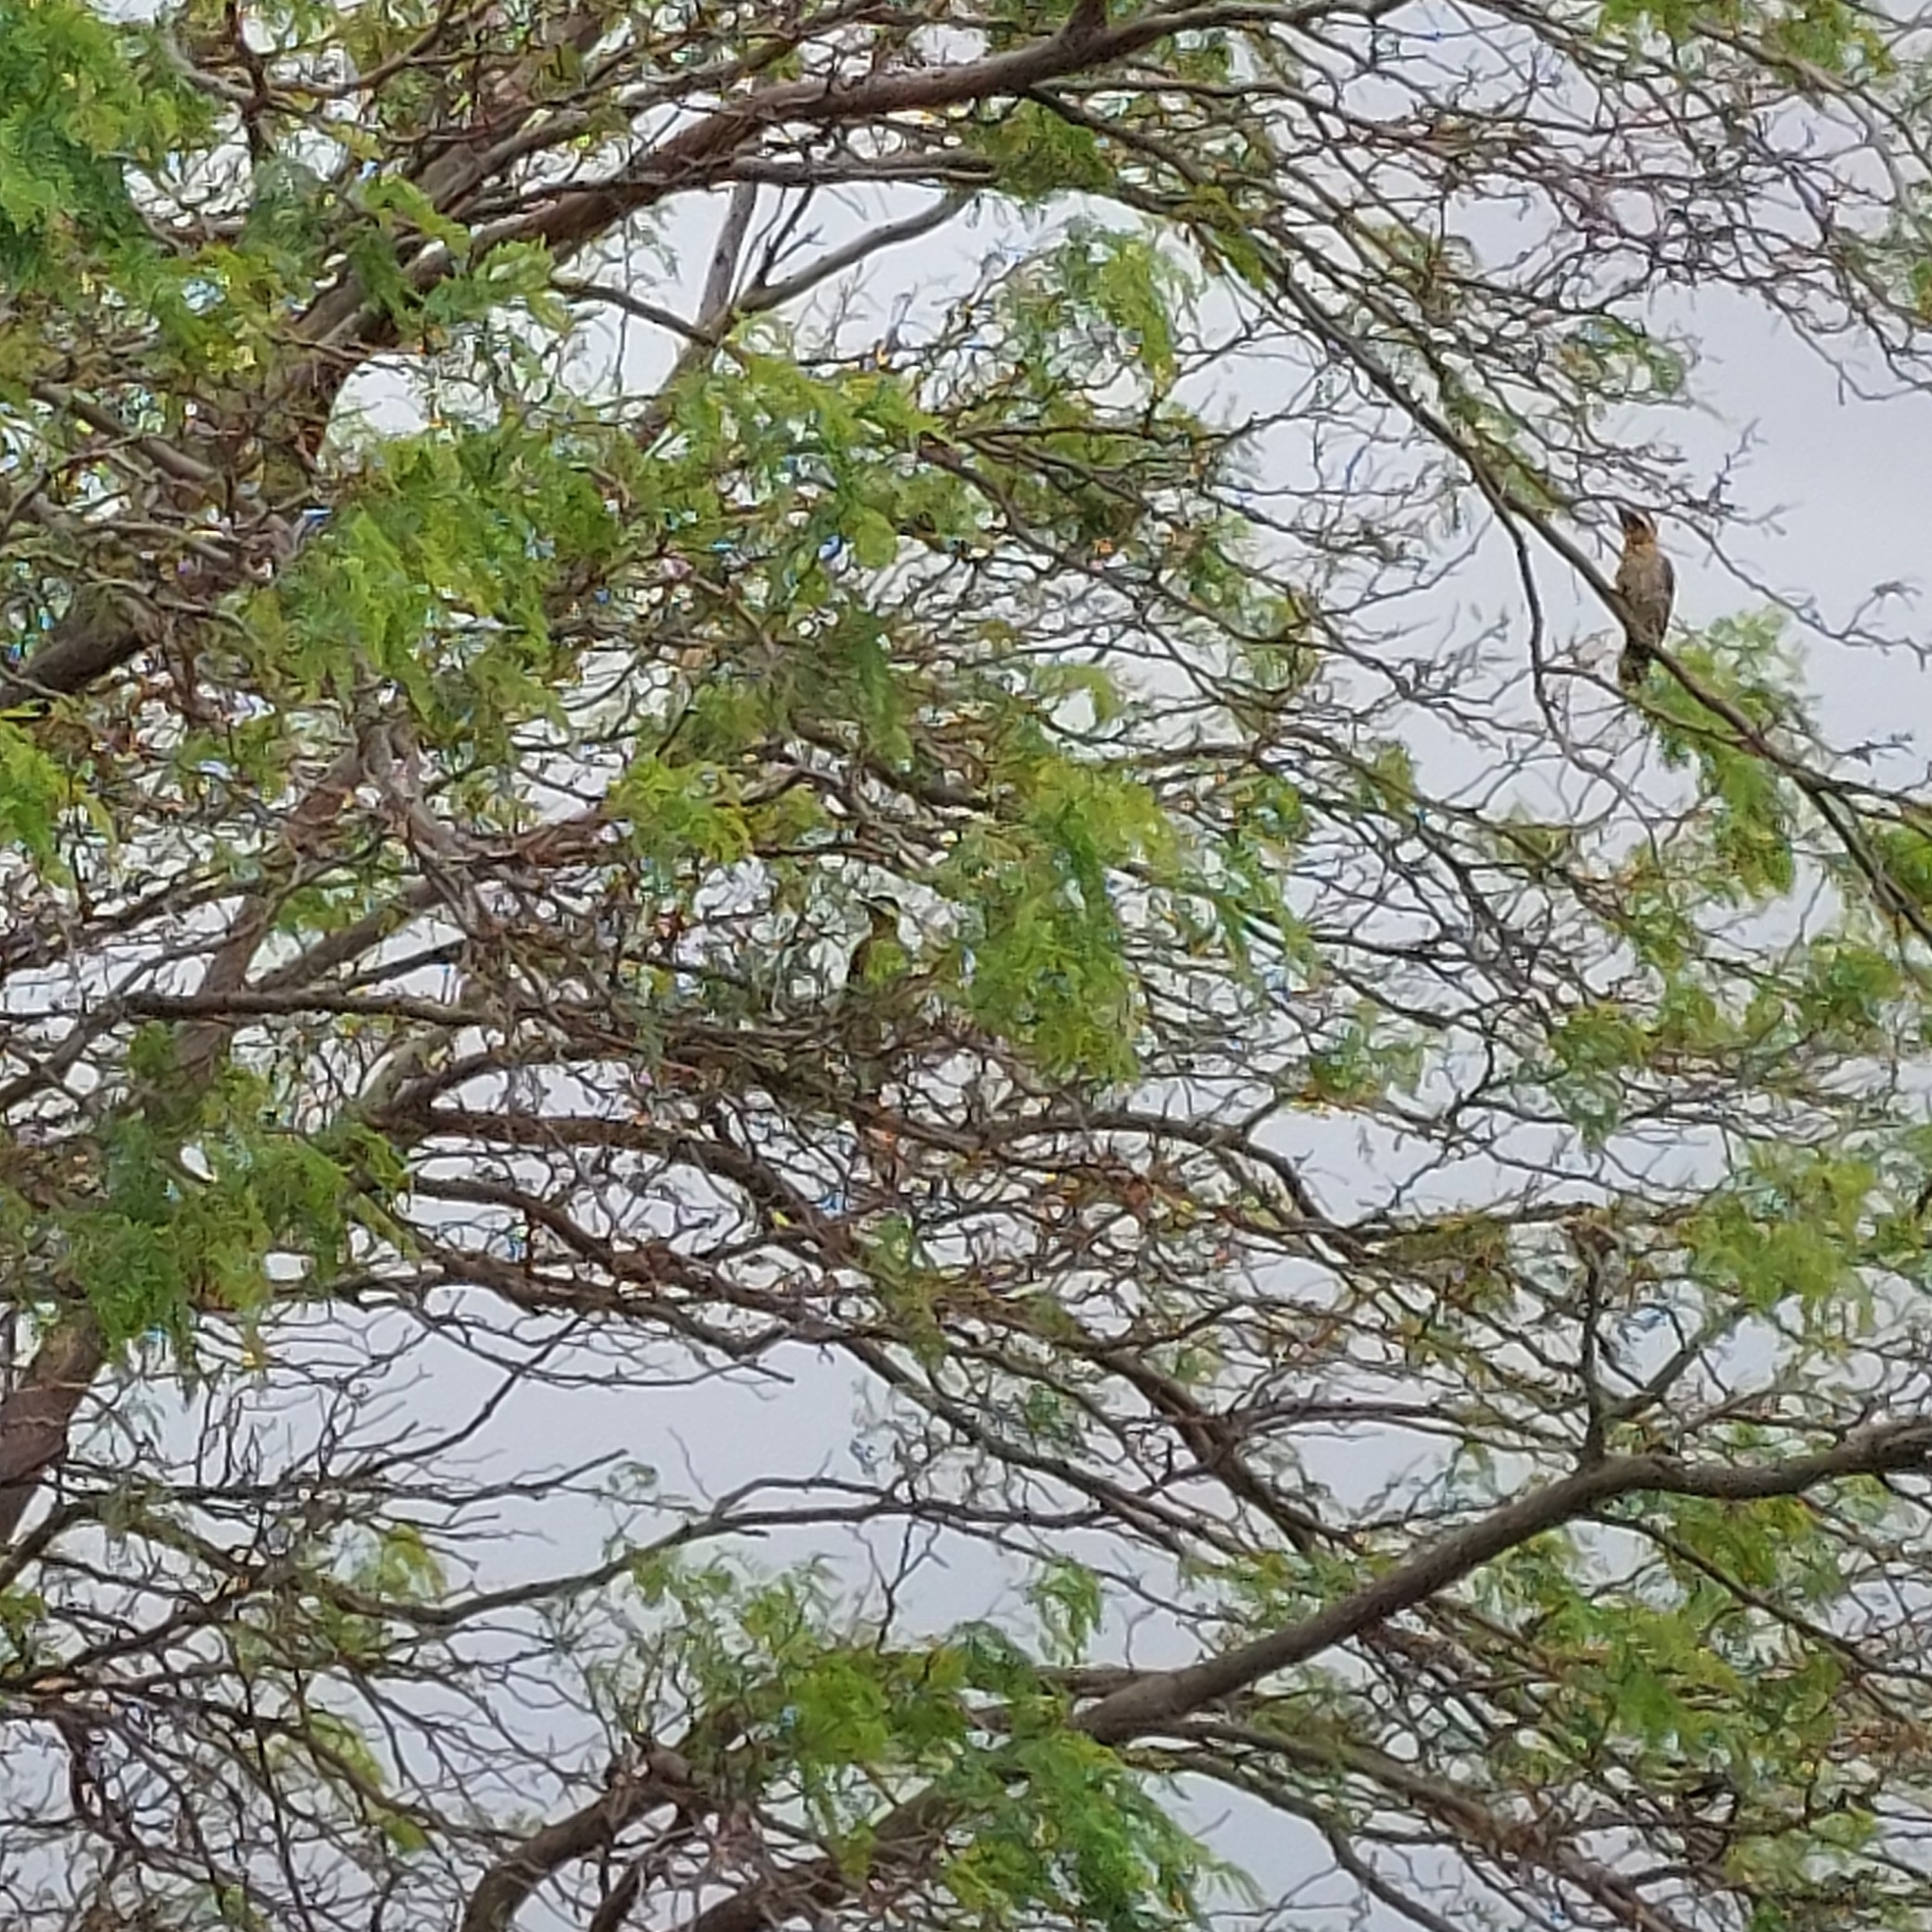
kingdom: Animalia
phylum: Chordata
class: Aves
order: Piciformes
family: Picidae
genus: Colaptes
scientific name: Colaptes melanochloros
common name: Green-barred woodpecker
